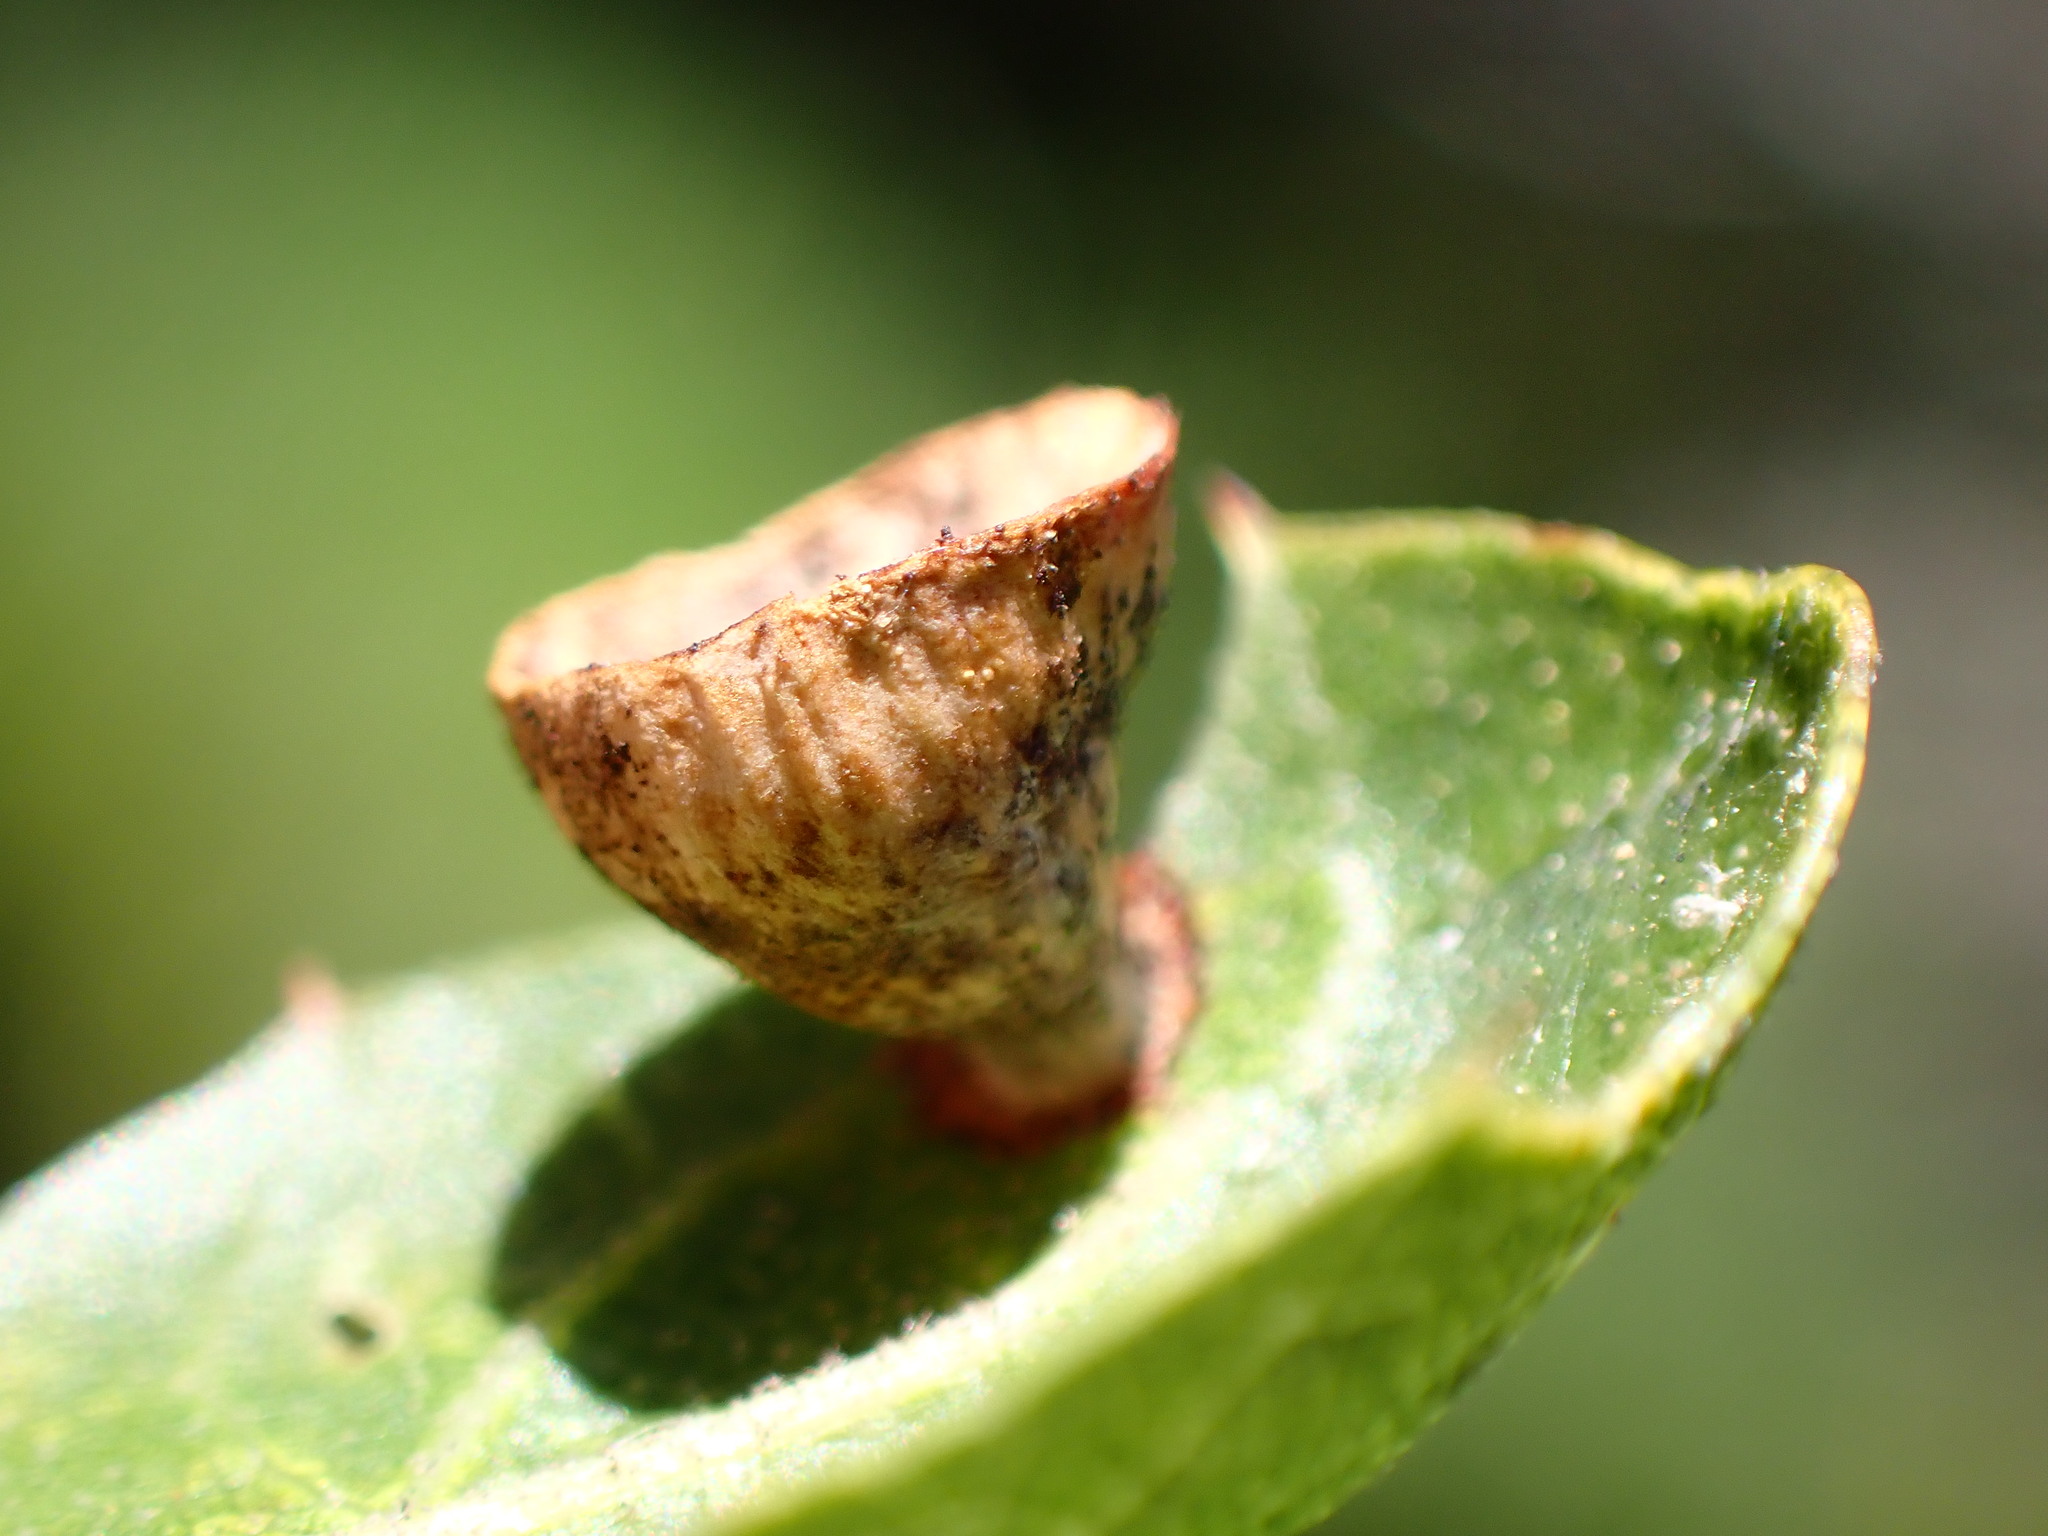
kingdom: Animalia
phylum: Arthropoda
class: Insecta
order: Hymenoptera
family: Cynipidae
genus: Amphibolips
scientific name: Amphibolips quercuspomiformis
